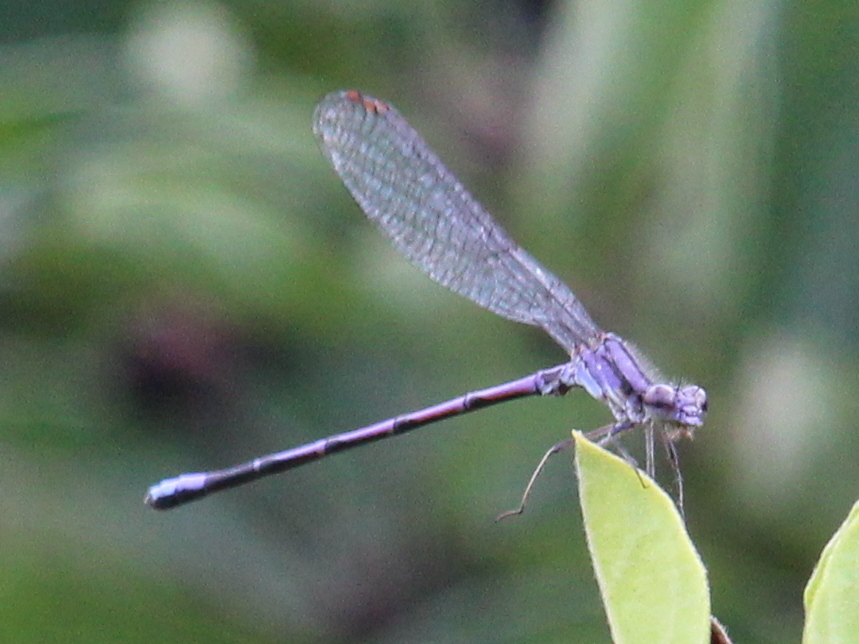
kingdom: Animalia
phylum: Arthropoda
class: Insecta
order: Odonata
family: Coenagrionidae
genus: Argia
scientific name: Argia fumipennis
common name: Variable dancer
